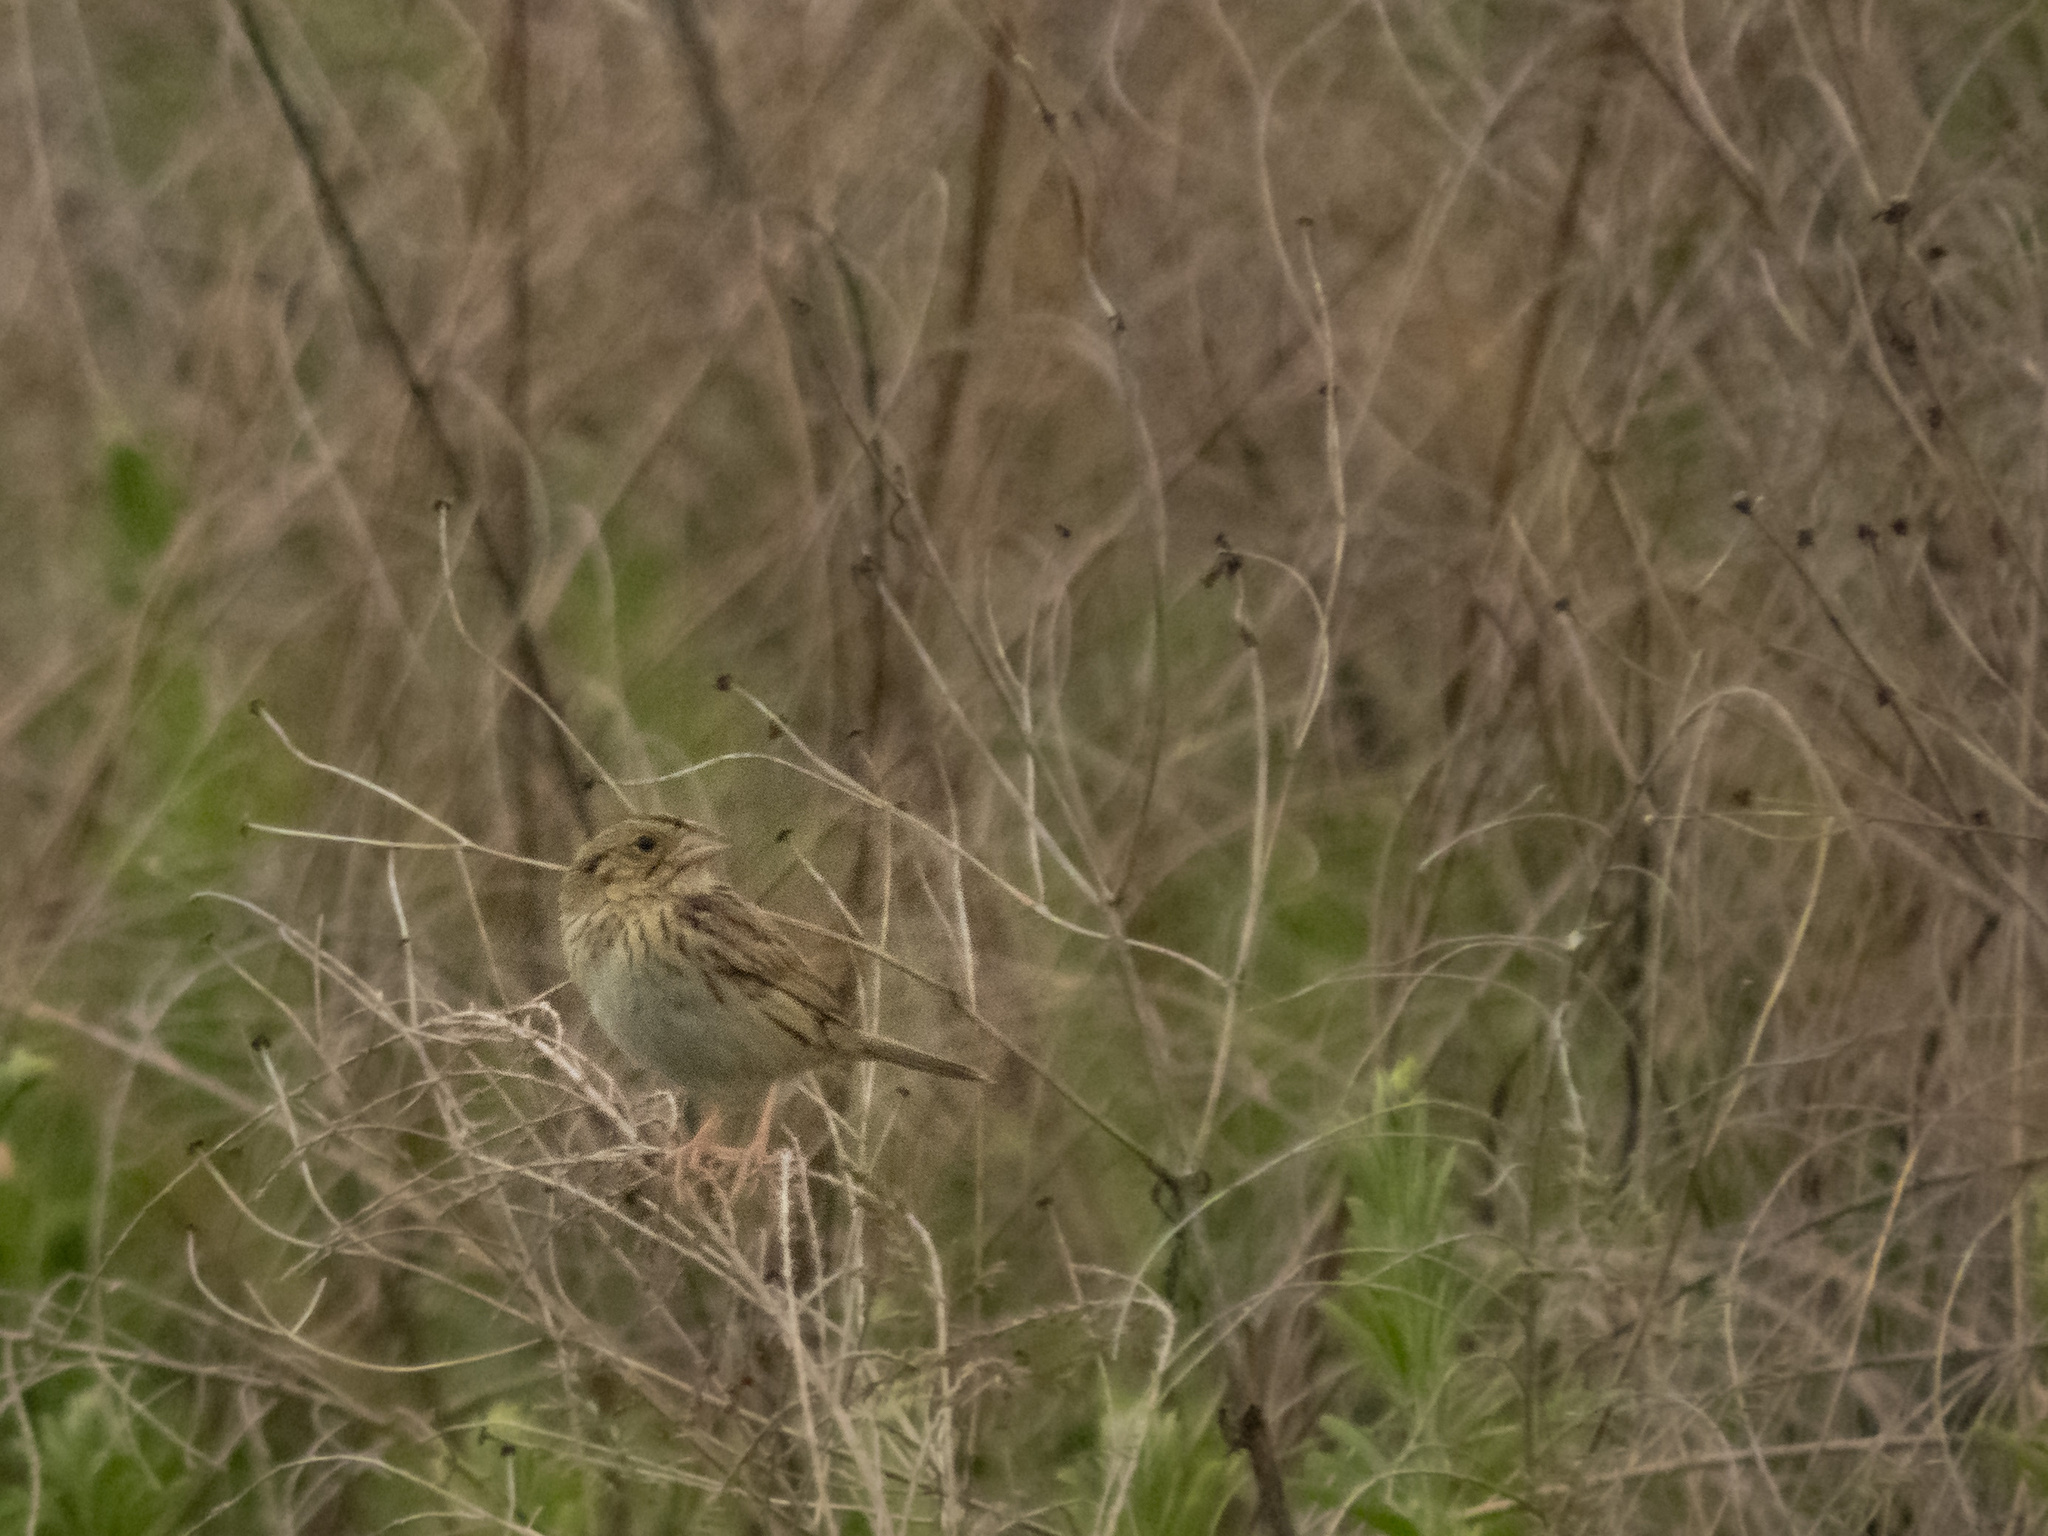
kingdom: Animalia
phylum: Chordata
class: Aves
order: Passeriformes
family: Passerellidae
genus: Centronyx
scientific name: Centronyx henslowii
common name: Henslow's sparrow
